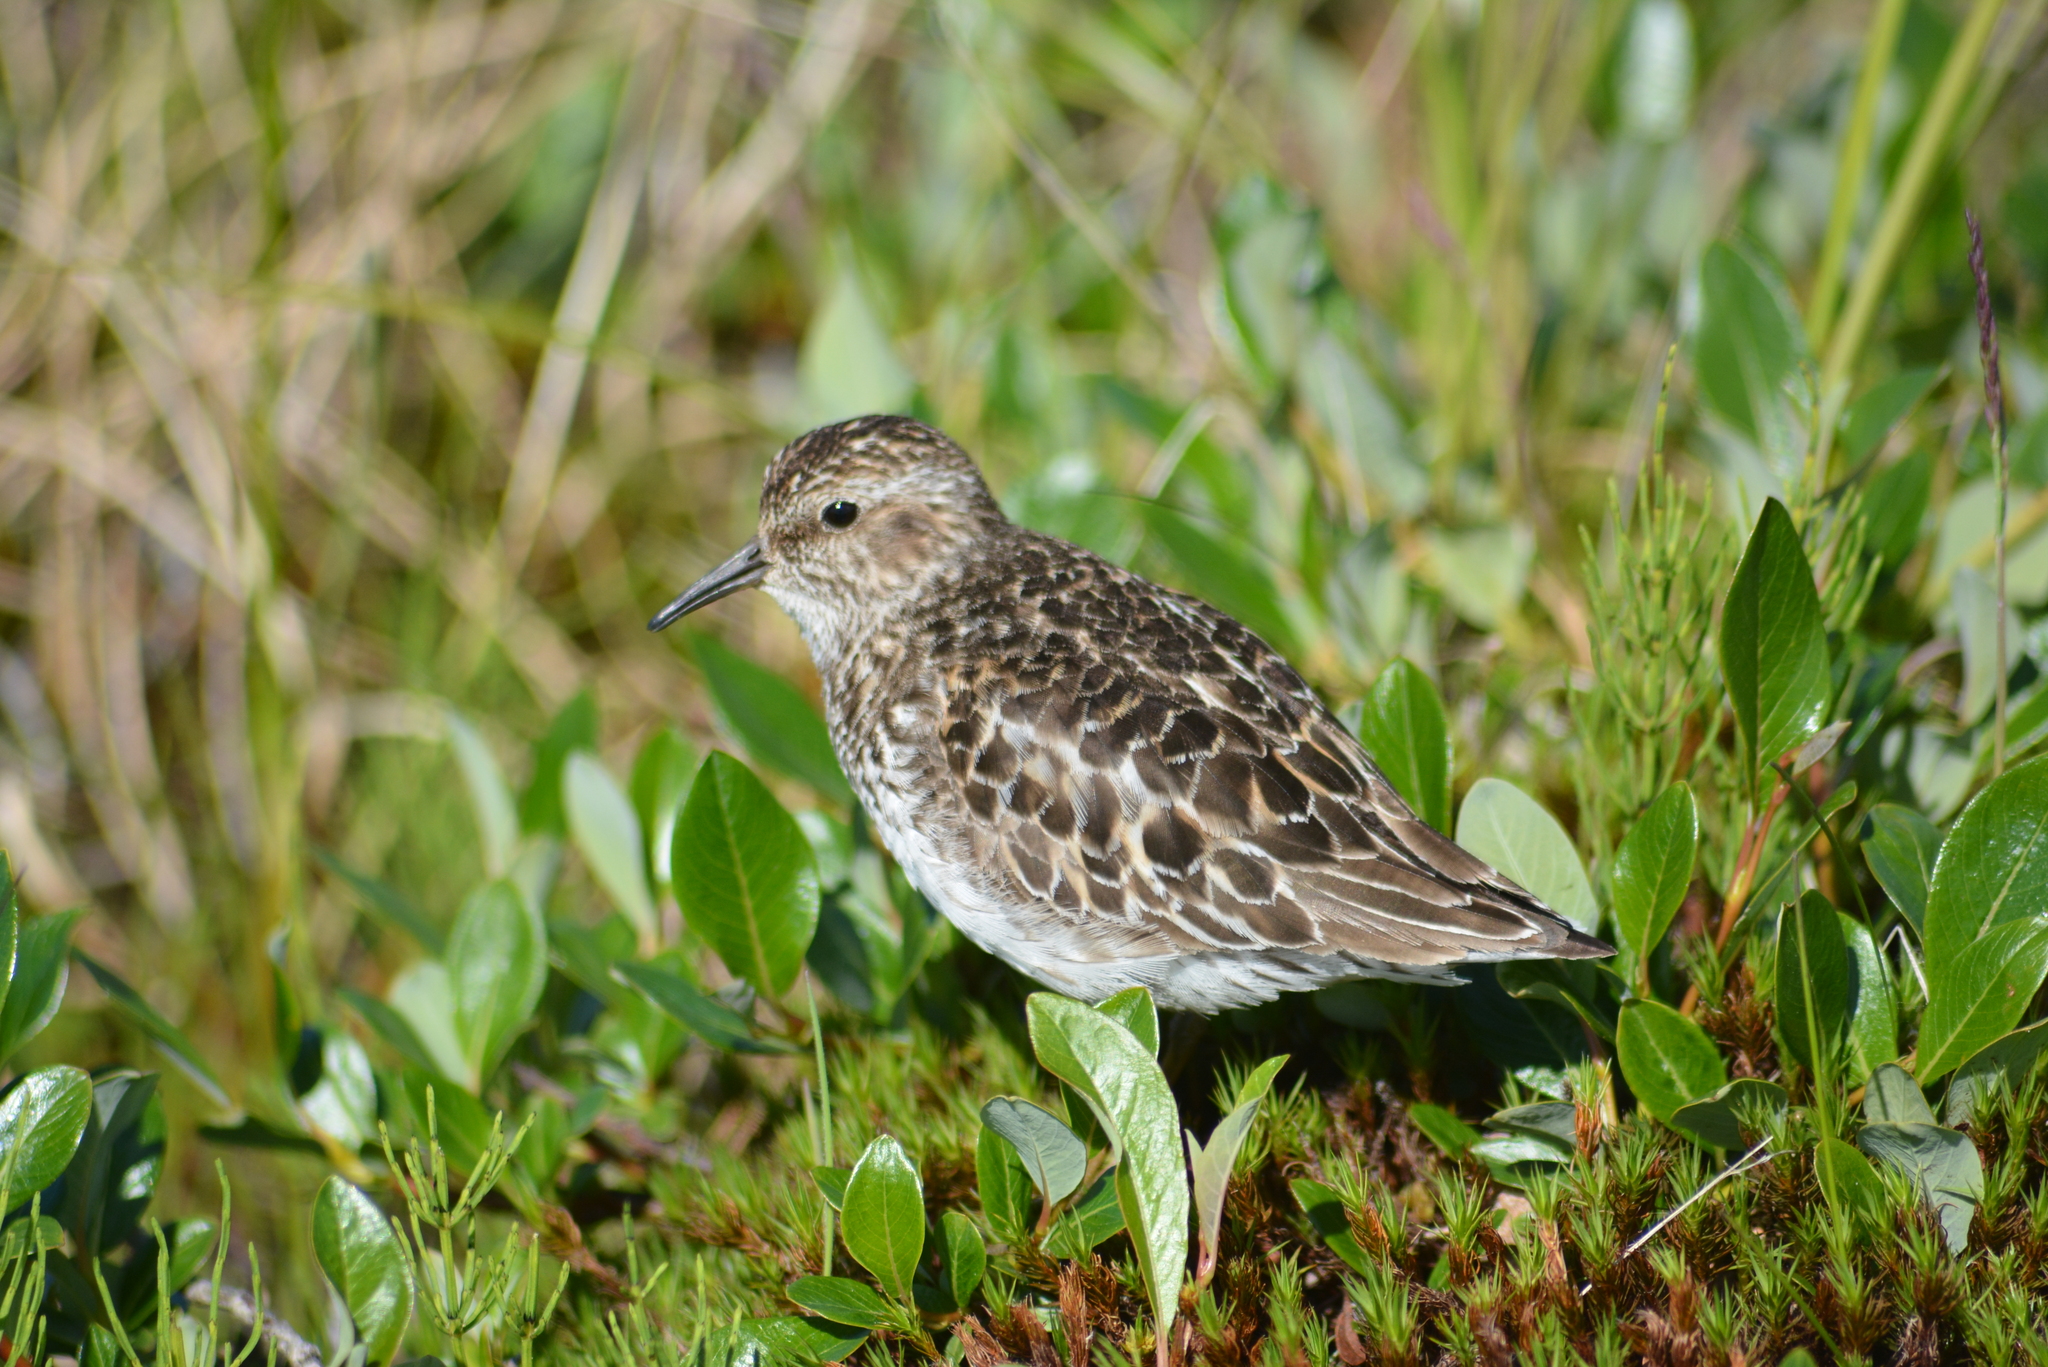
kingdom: Animalia
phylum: Chordata
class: Aves
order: Charadriiformes
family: Scolopacidae
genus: Calidris
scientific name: Calidris minutilla
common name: Least sandpiper
